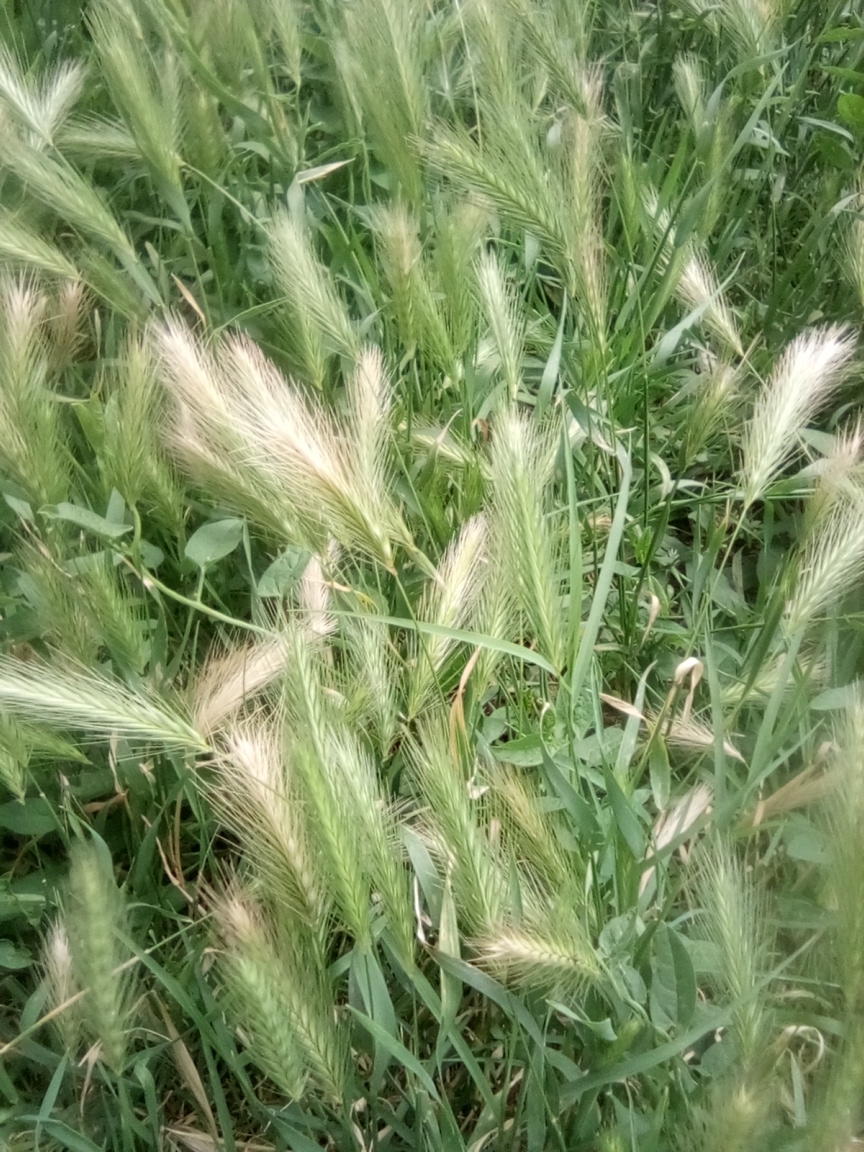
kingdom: Plantae
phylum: Tracheophyta
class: Liliopsida
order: Poales
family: Poaceae
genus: Hordeum
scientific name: Hordeum murinum
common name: Wall barley
